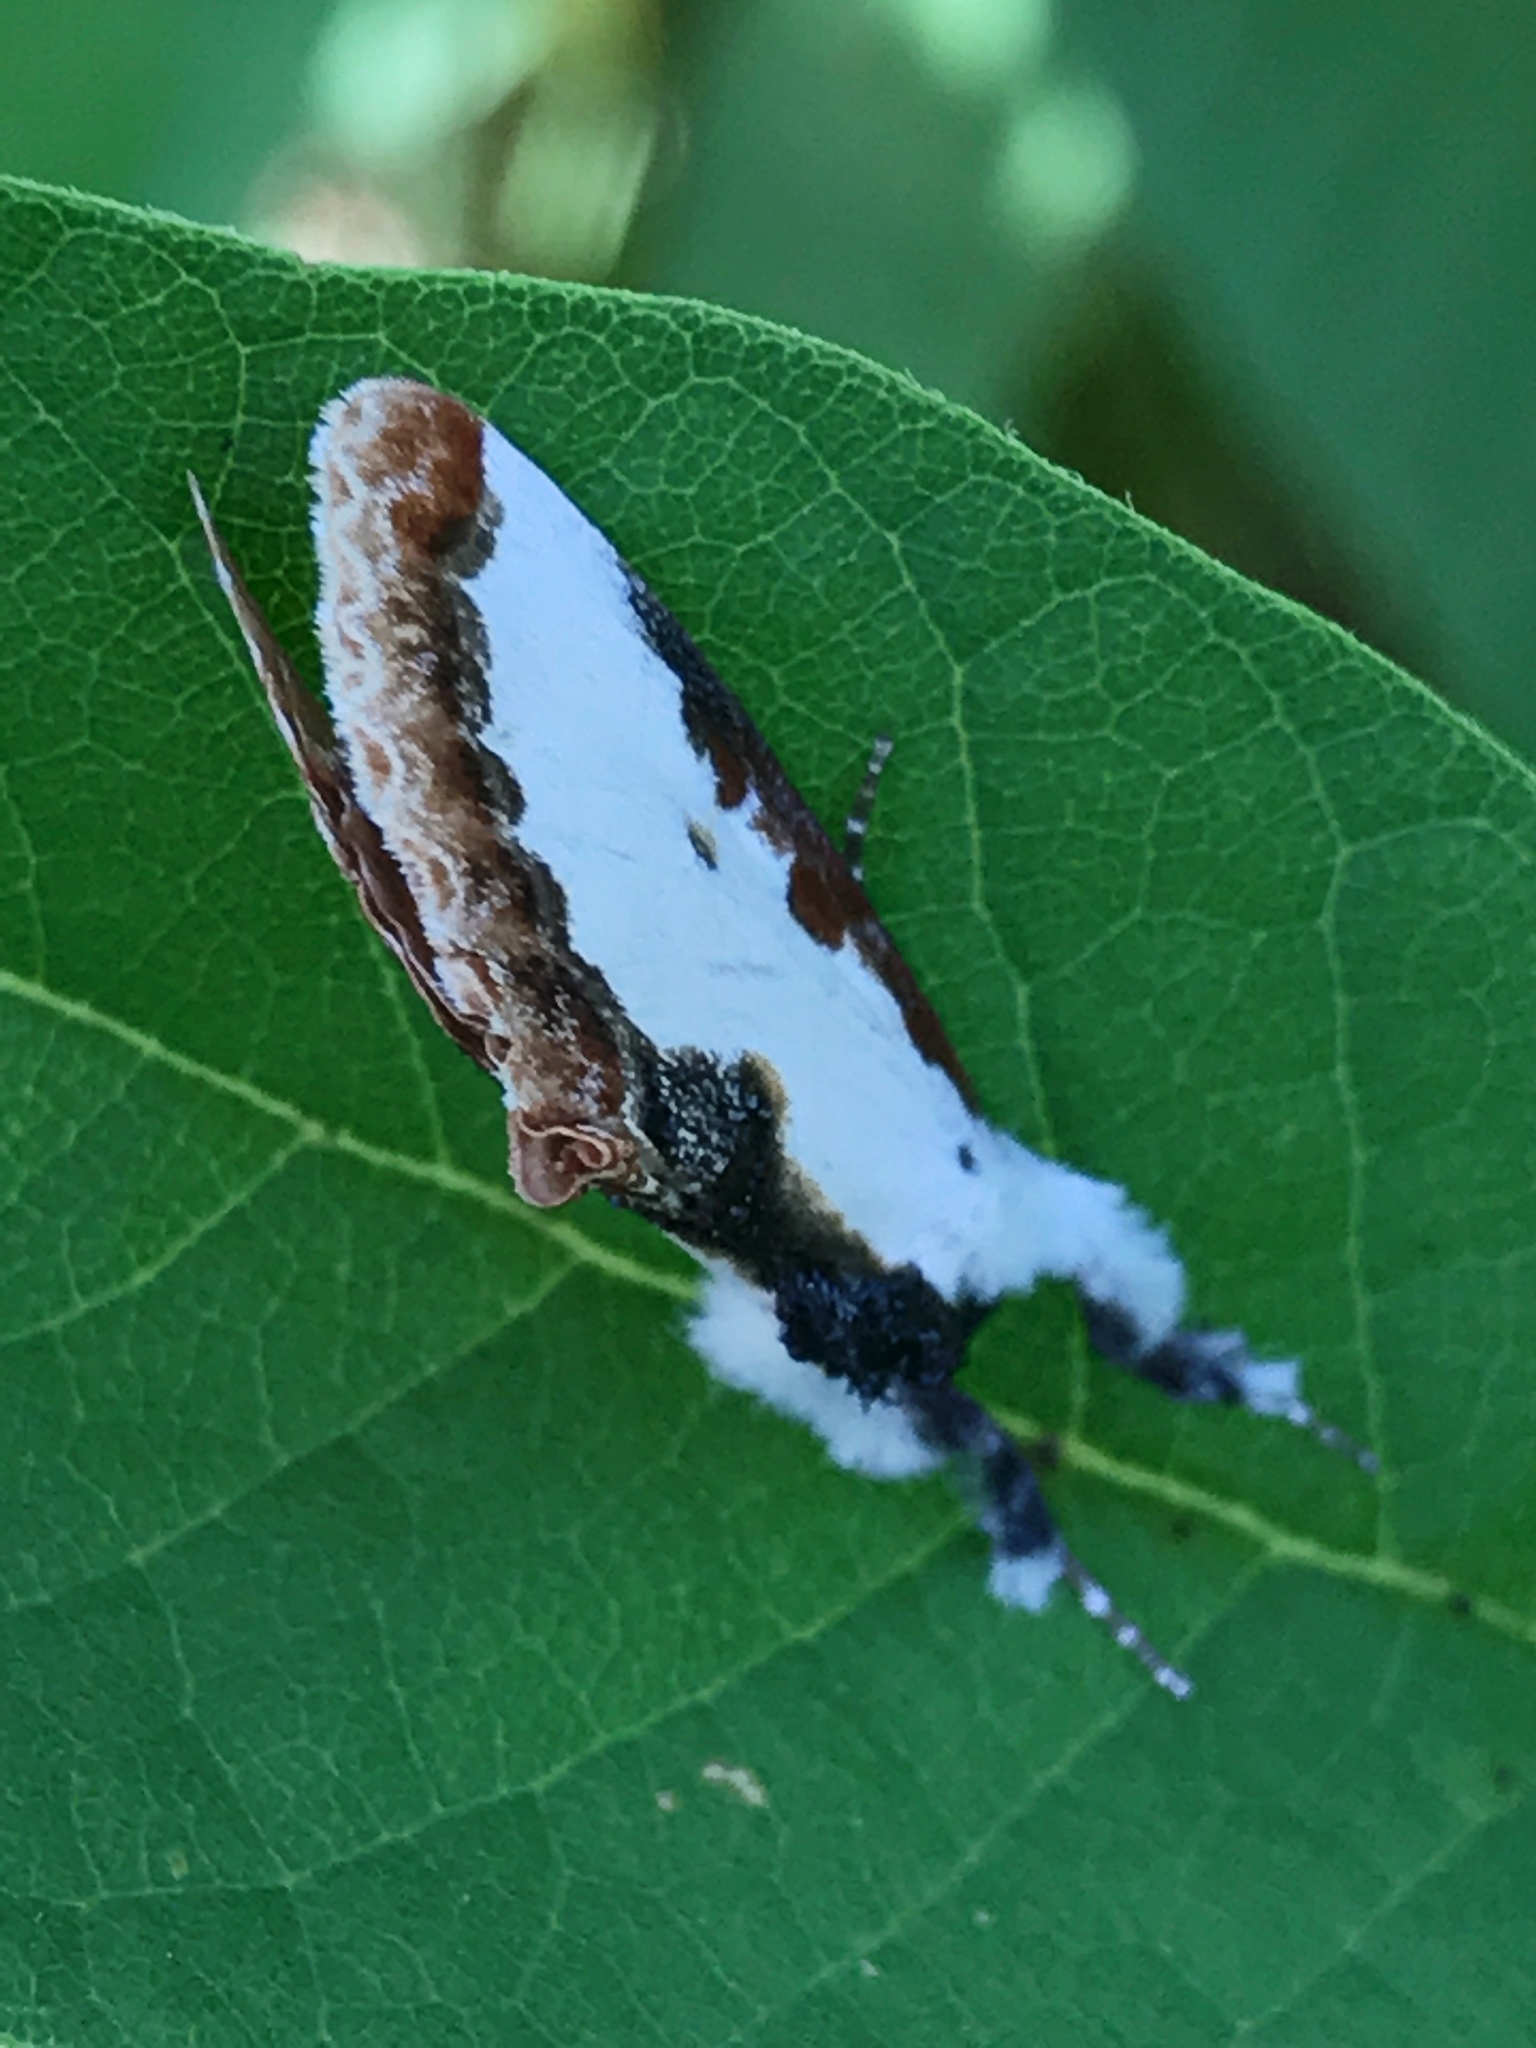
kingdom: Animalia
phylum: Arthropoda
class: Insecta
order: Lepidoptera
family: Noctuidae
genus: Eudryas
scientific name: Eudryas unio
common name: Pearly wood-nymph
